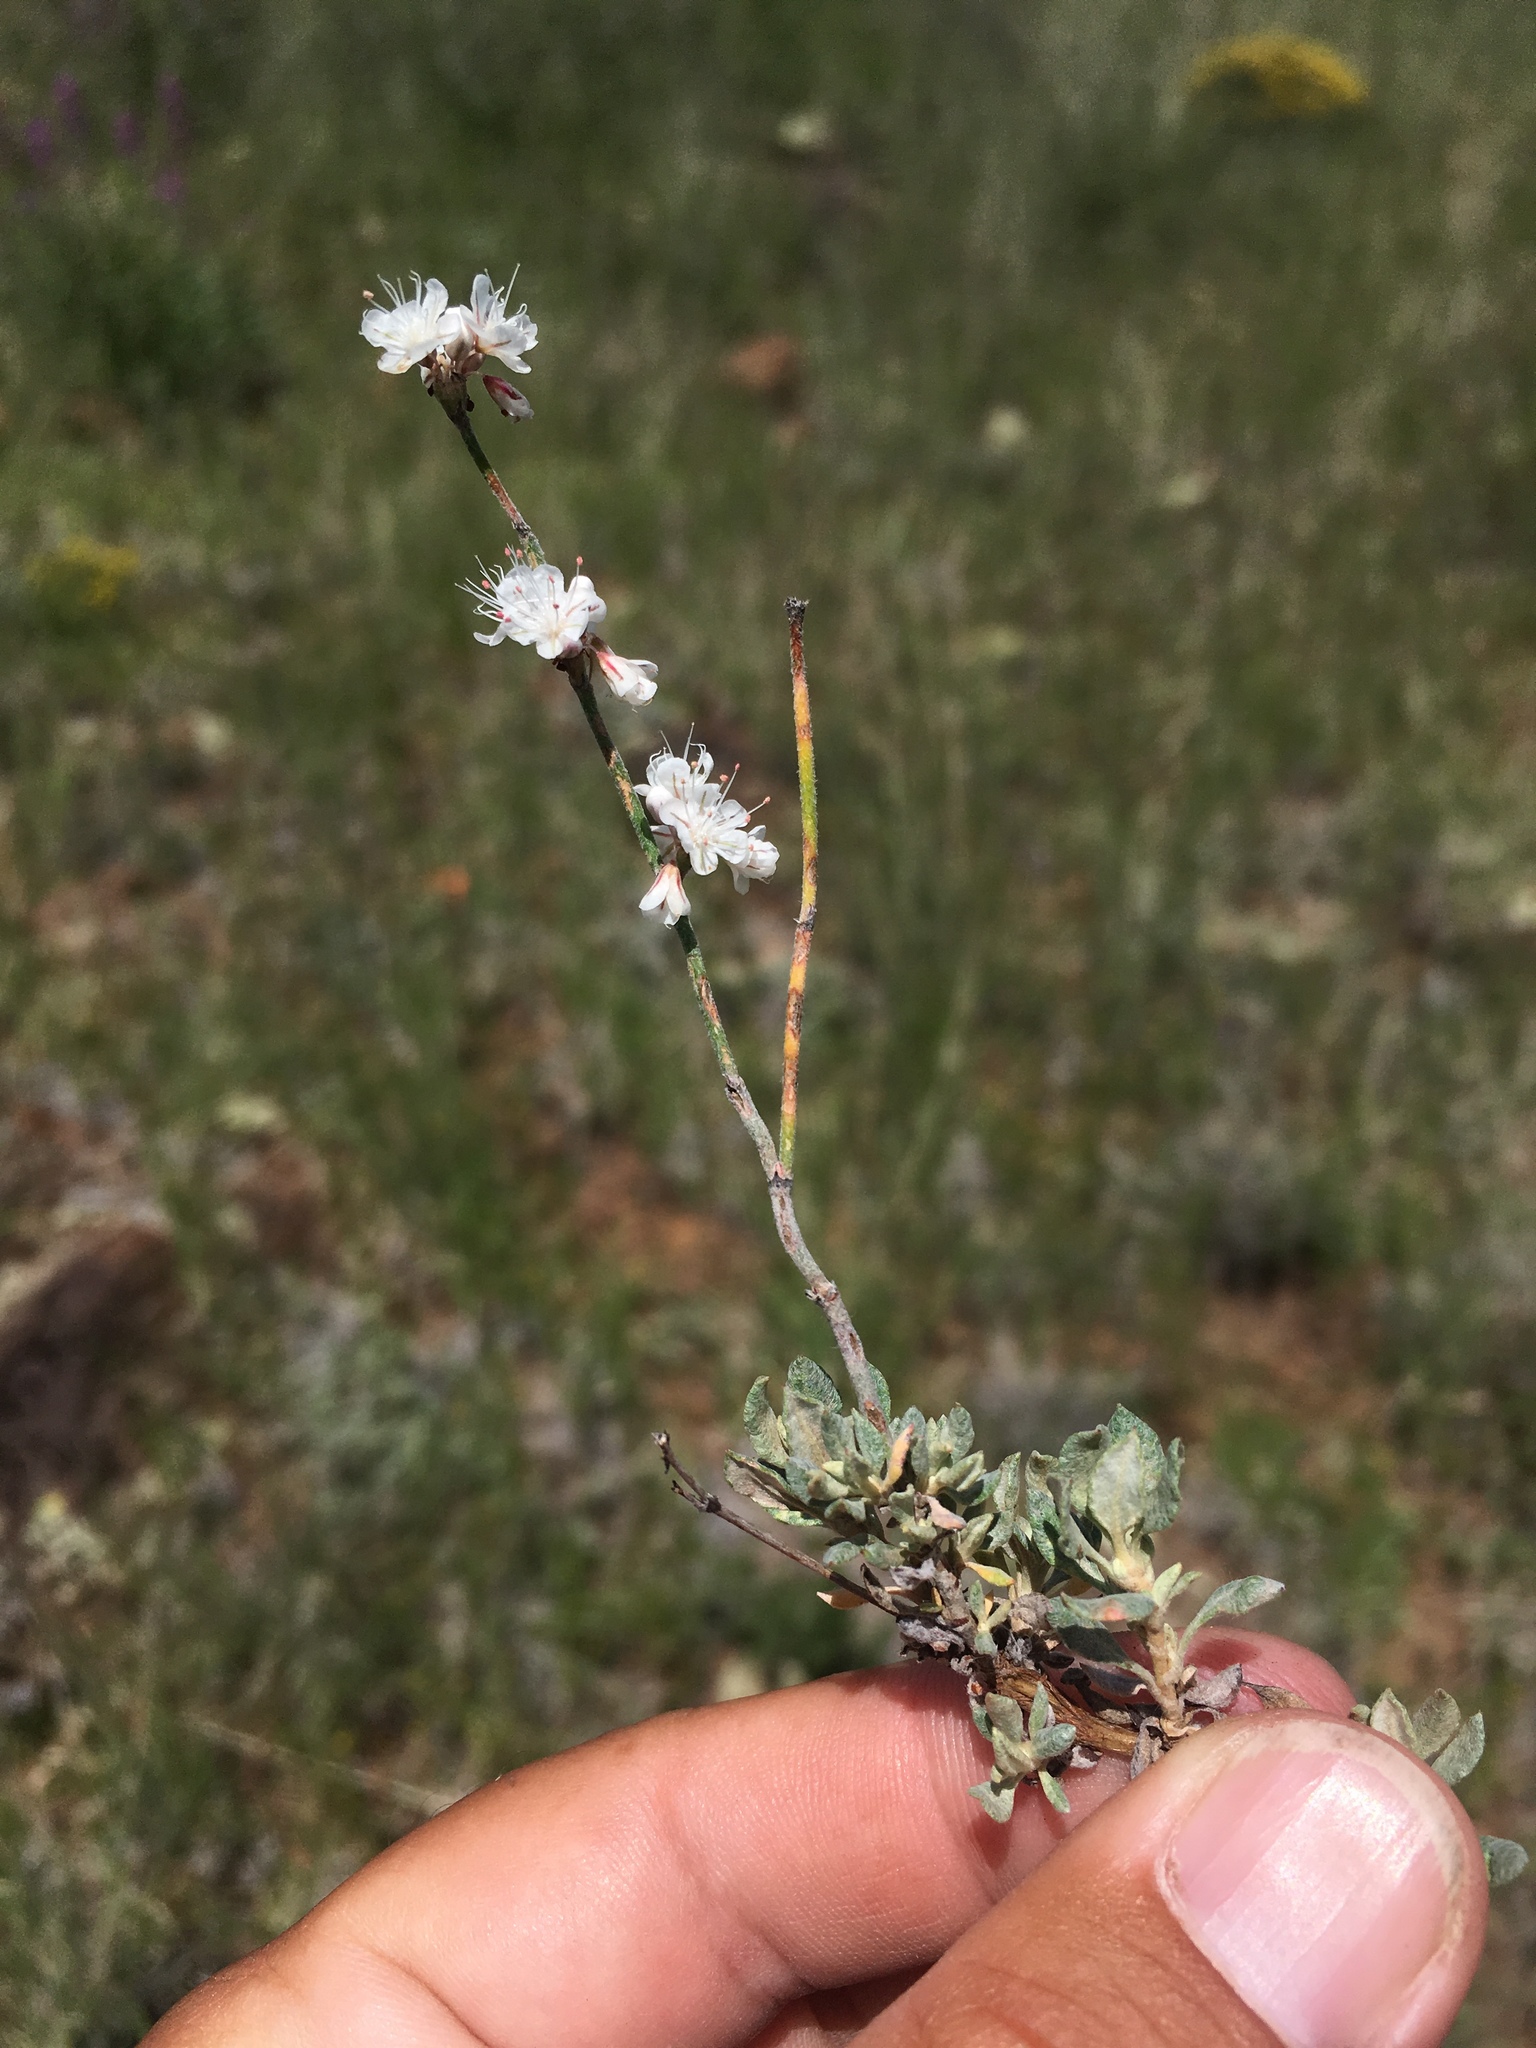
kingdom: Plantae
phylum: Tracheophyta
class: Magnoliopsida
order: Caryophyllales
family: Polygonaceae
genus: Eriogonum
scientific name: Eriogonum wrightii
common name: Bastard-sage
